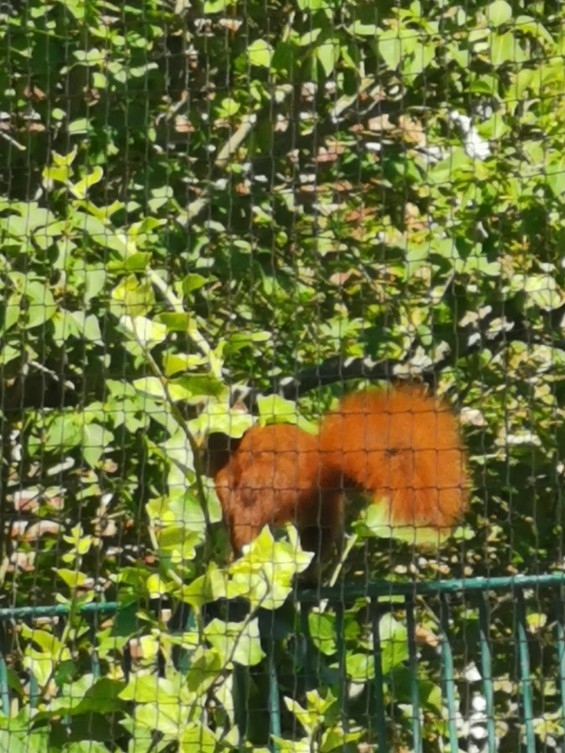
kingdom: Animalia
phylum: Chordata
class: Mammalia
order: Rodentia
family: Sciuridae
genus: Sciurus
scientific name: Sciurus vulgaris
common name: Eurasian red squirrel
